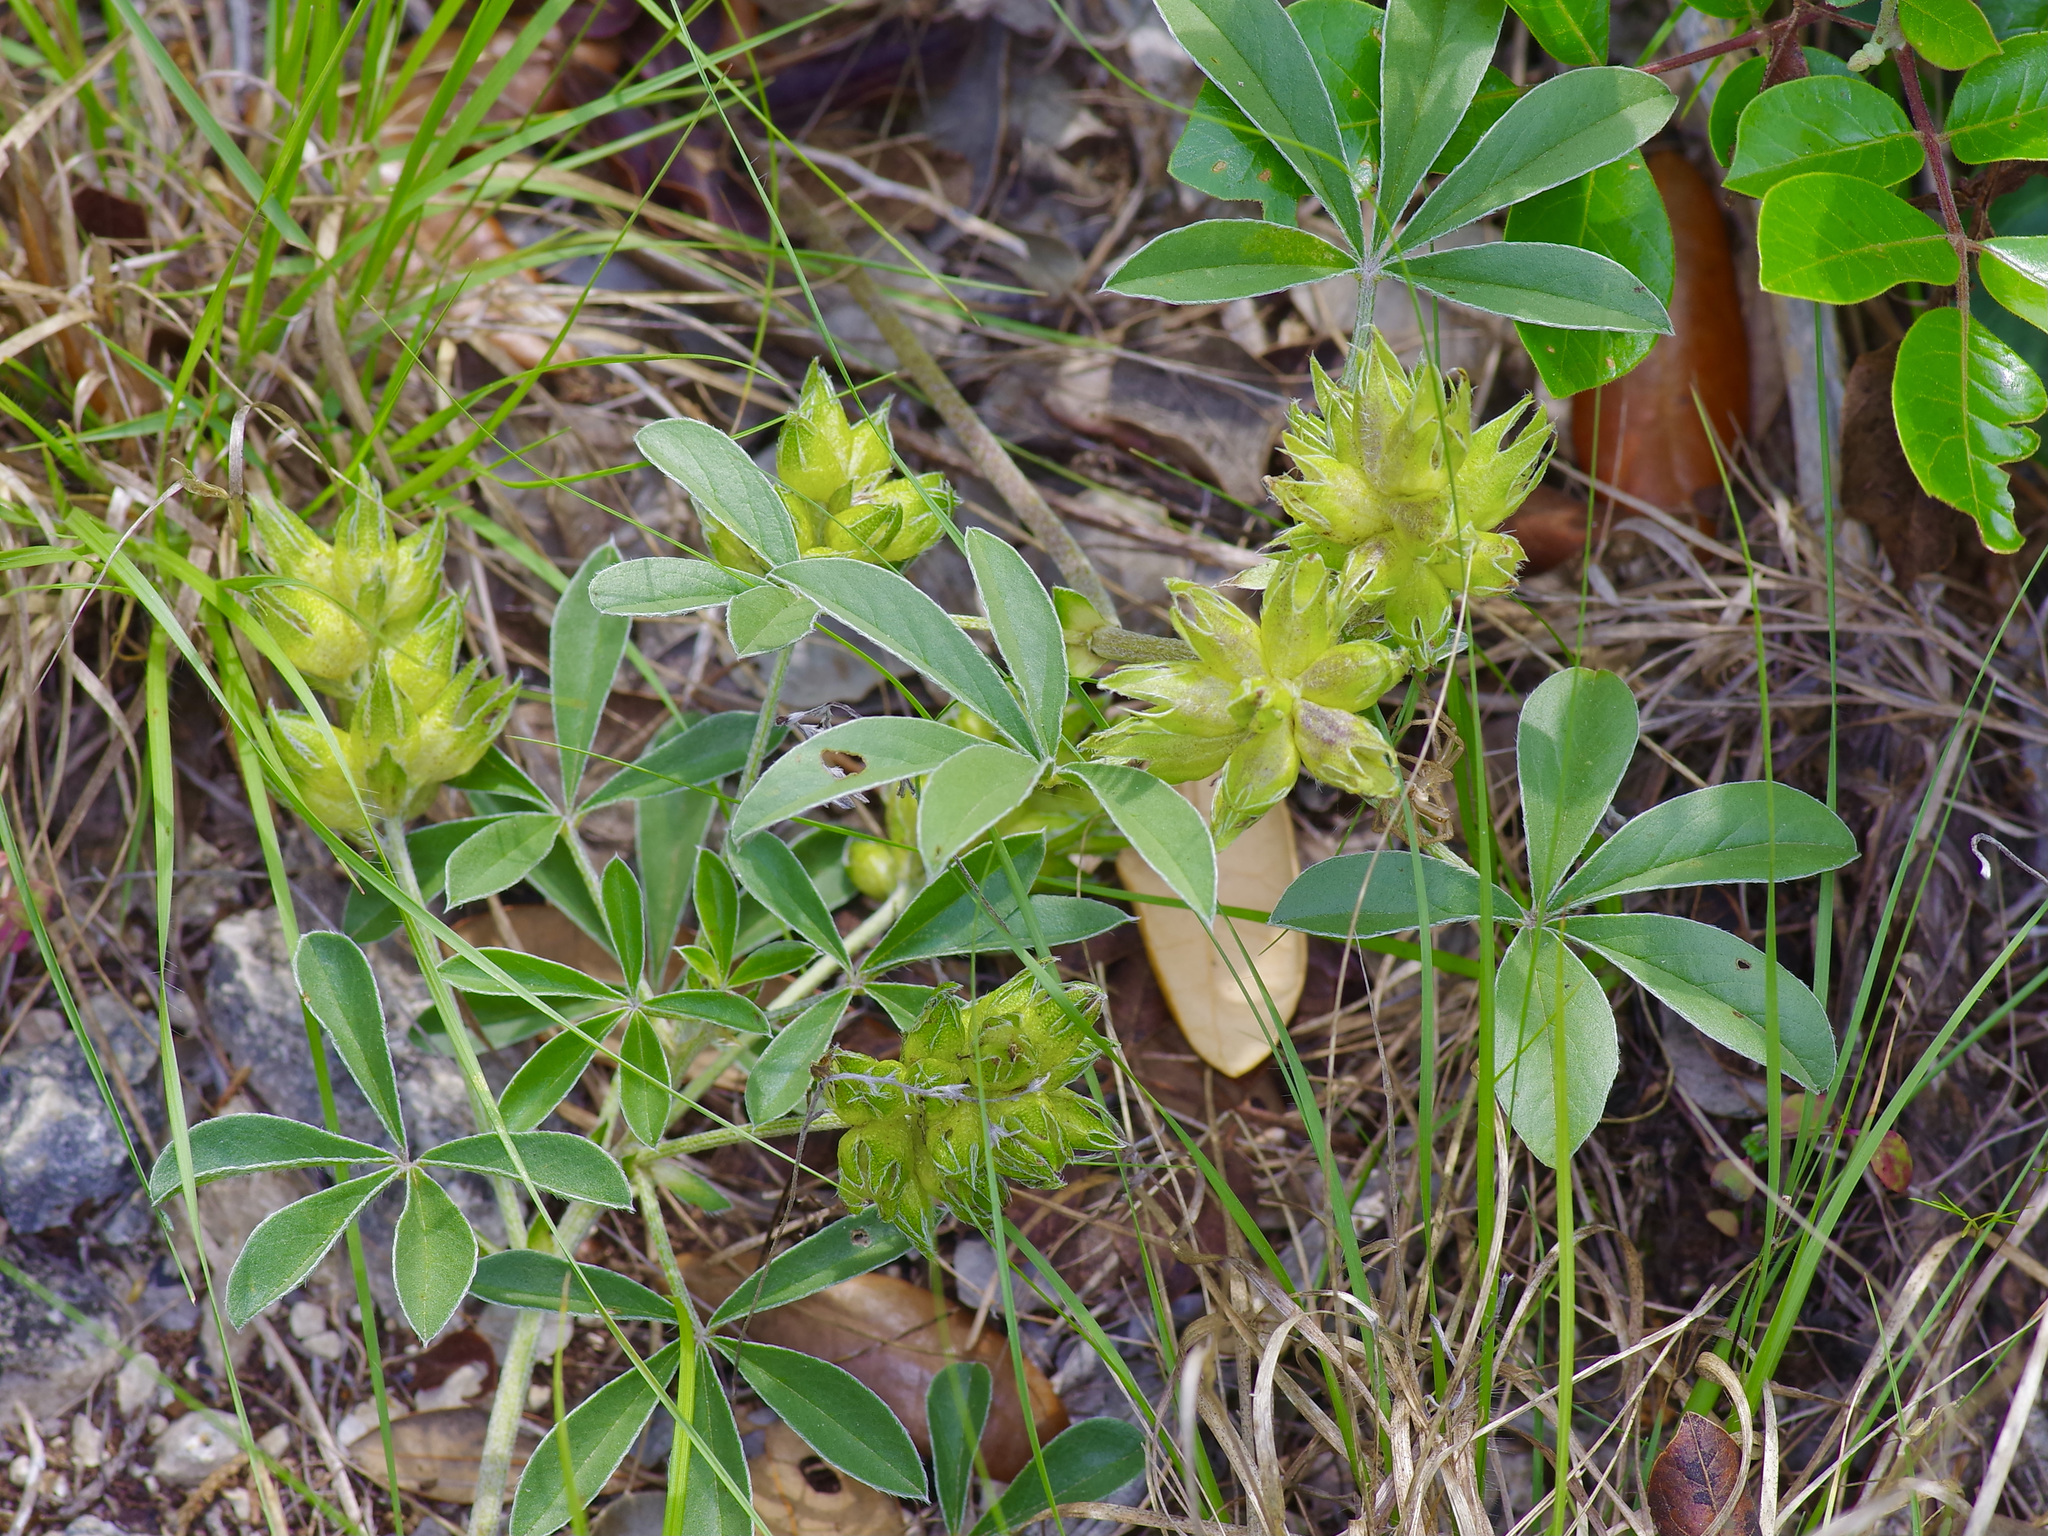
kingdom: Plantae
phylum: Tracheophyta
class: Magnoliopsida
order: Fabales
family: Fabaceae
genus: Pediomelum
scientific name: Pediomelum latestipulatum
